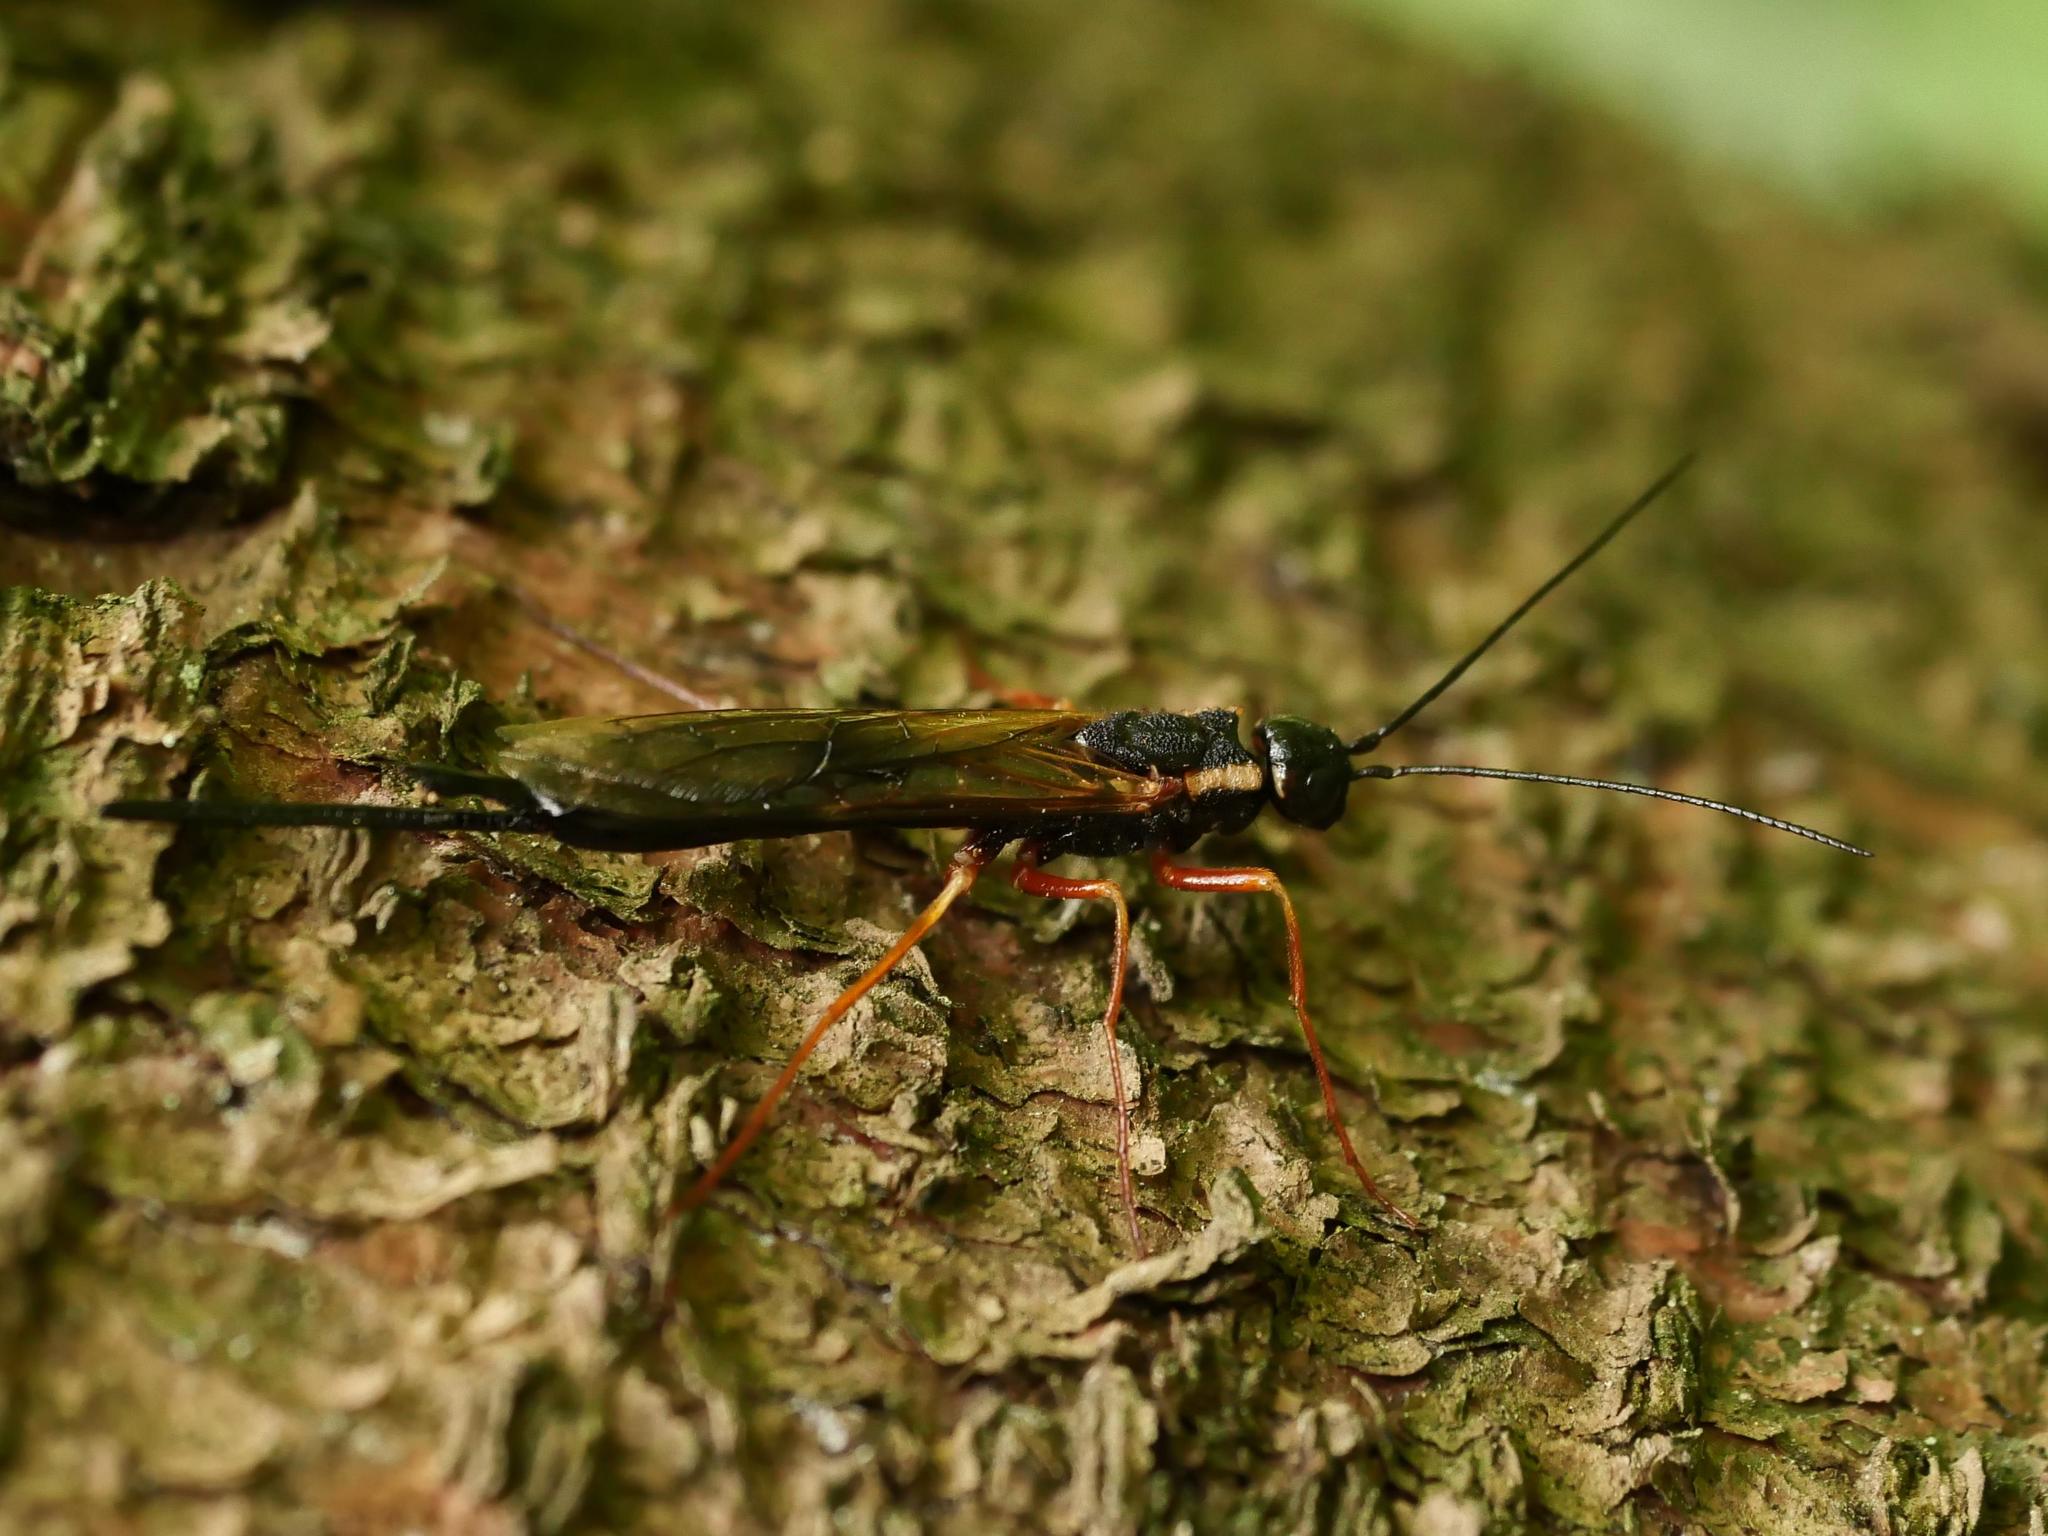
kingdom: Animalia
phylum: Arthropoda
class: Insecta
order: Hymenoptera
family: Siricidae
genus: Xeris
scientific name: Xeris spectrum
